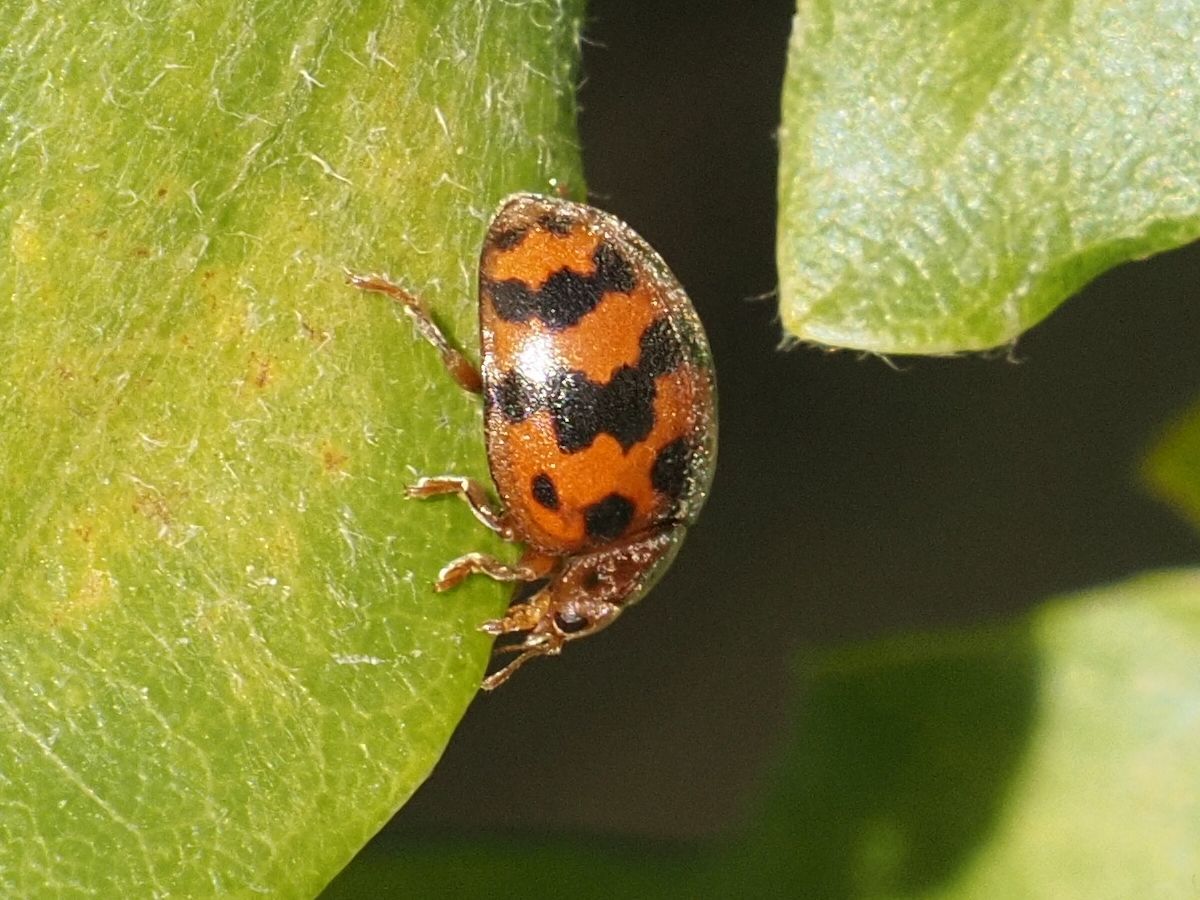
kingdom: Animalia
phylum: Arthropoda
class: Insecta
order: Coleoptera
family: Coccinellidae
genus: Subcoccinella
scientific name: Subcoccinella vigintiquatuorpunctata
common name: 24-spot ladybird
